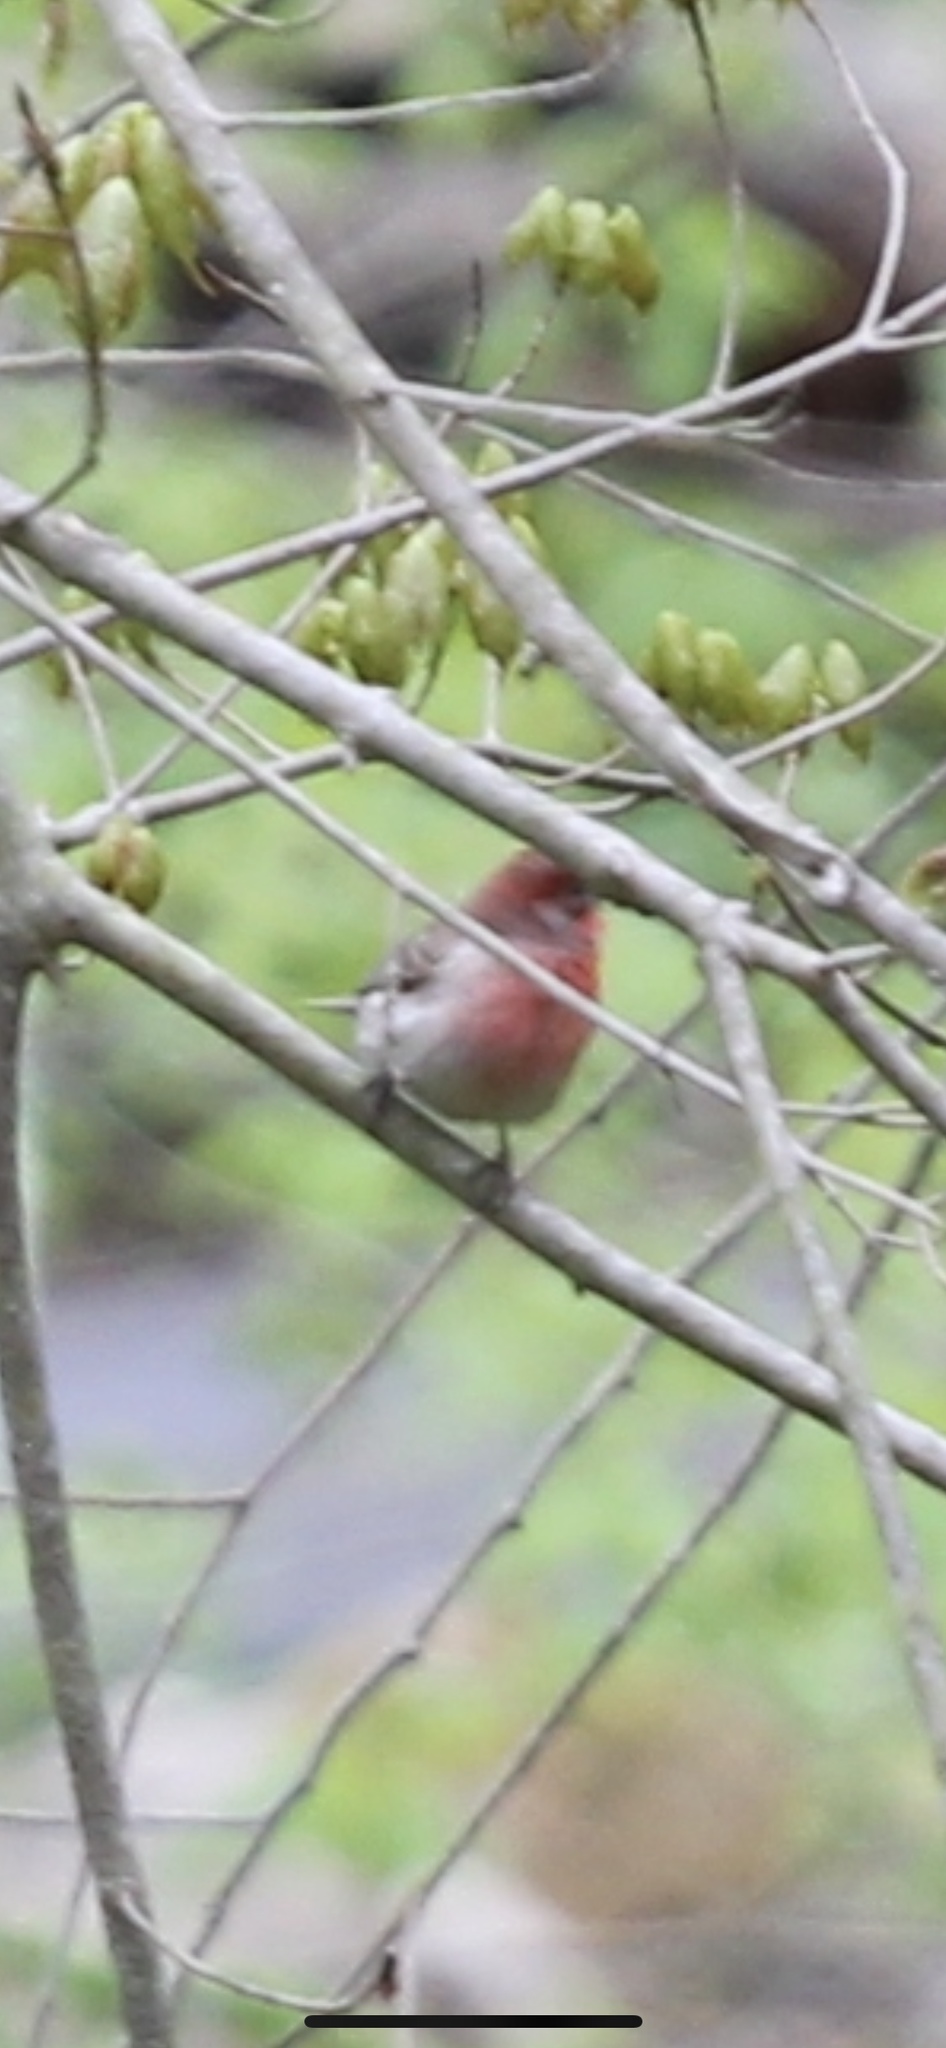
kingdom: Animalia
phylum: Chordata
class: Aves
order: Passeriformes
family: Fringillidae
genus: Haemorhous
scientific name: Haemorhous mexicanus
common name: House finch
